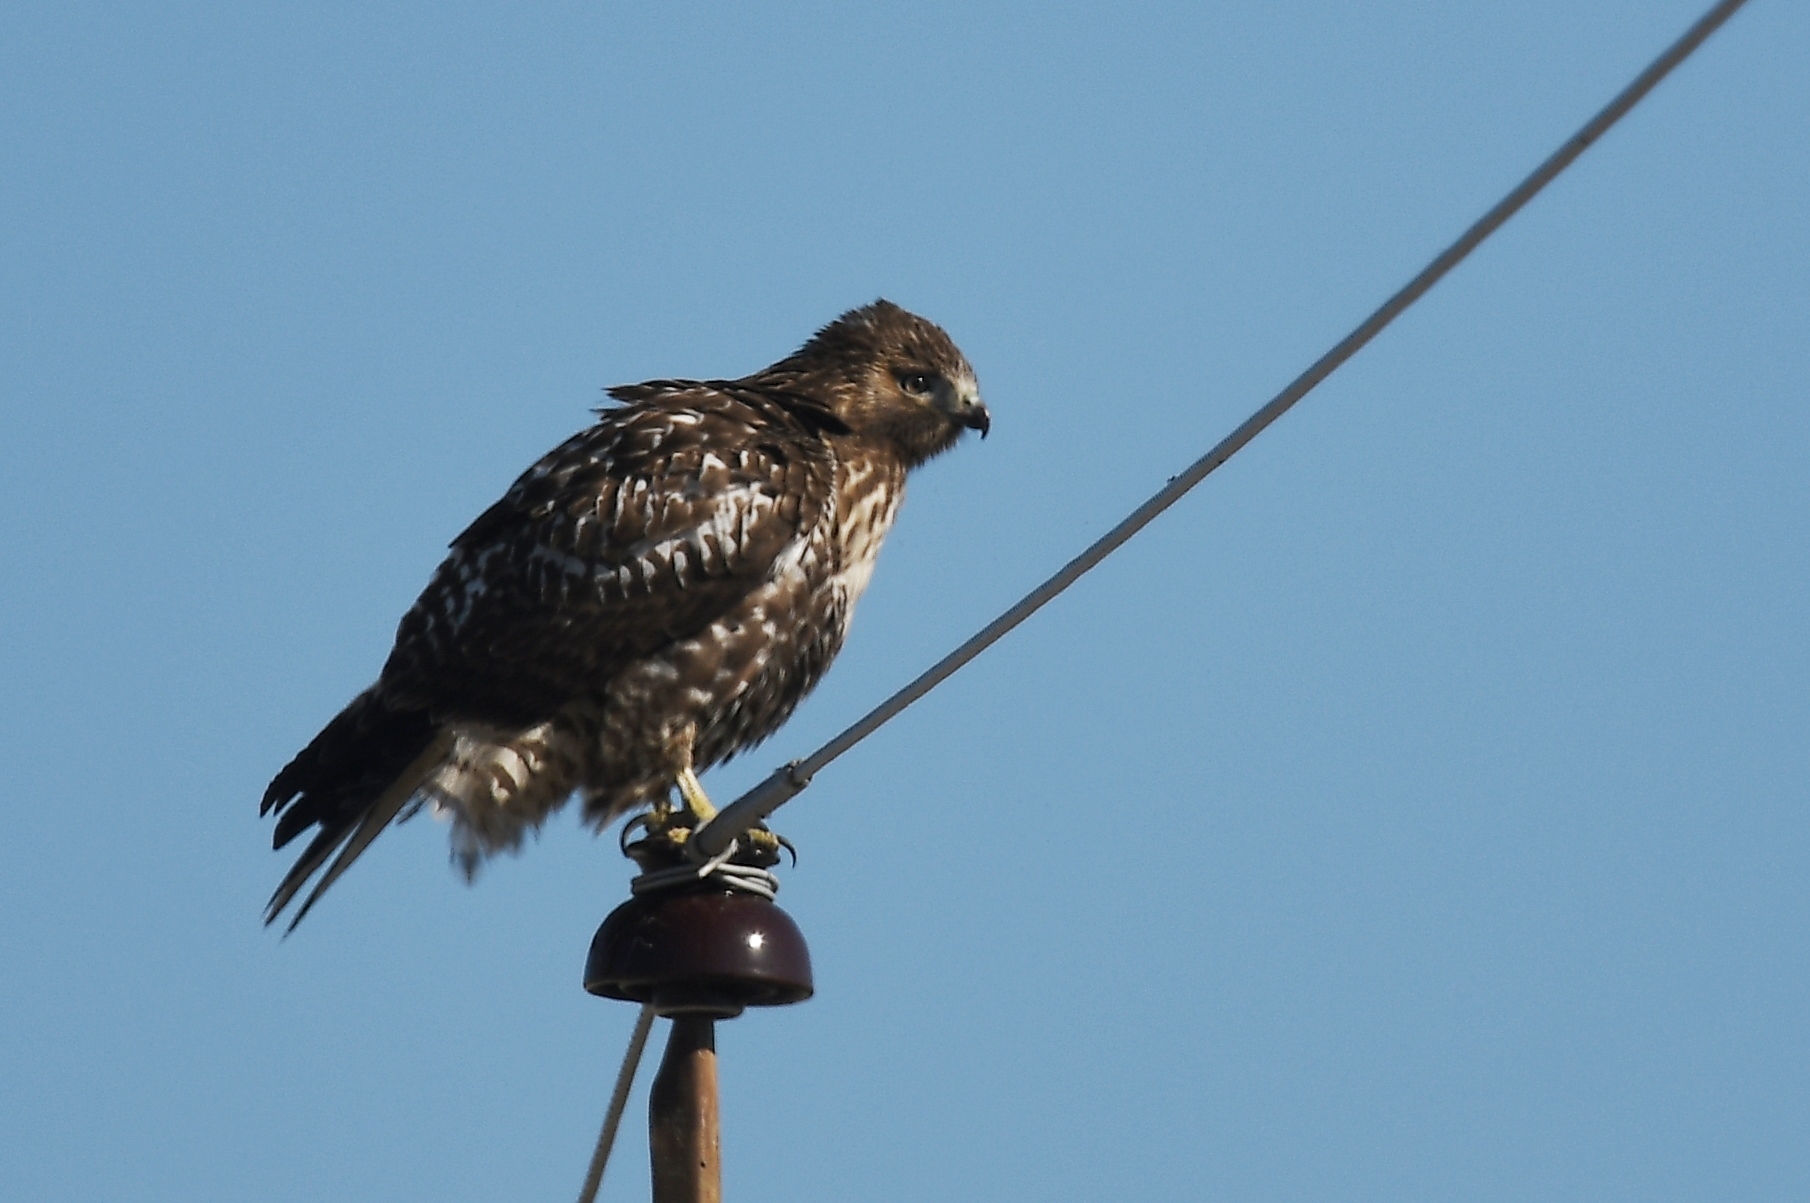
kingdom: Animalia
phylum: Chordata
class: Aves
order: Accipitriformes
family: Accipitridae
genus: Buteo
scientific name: Buteo jamaicensis
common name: Red-tailed hawk
